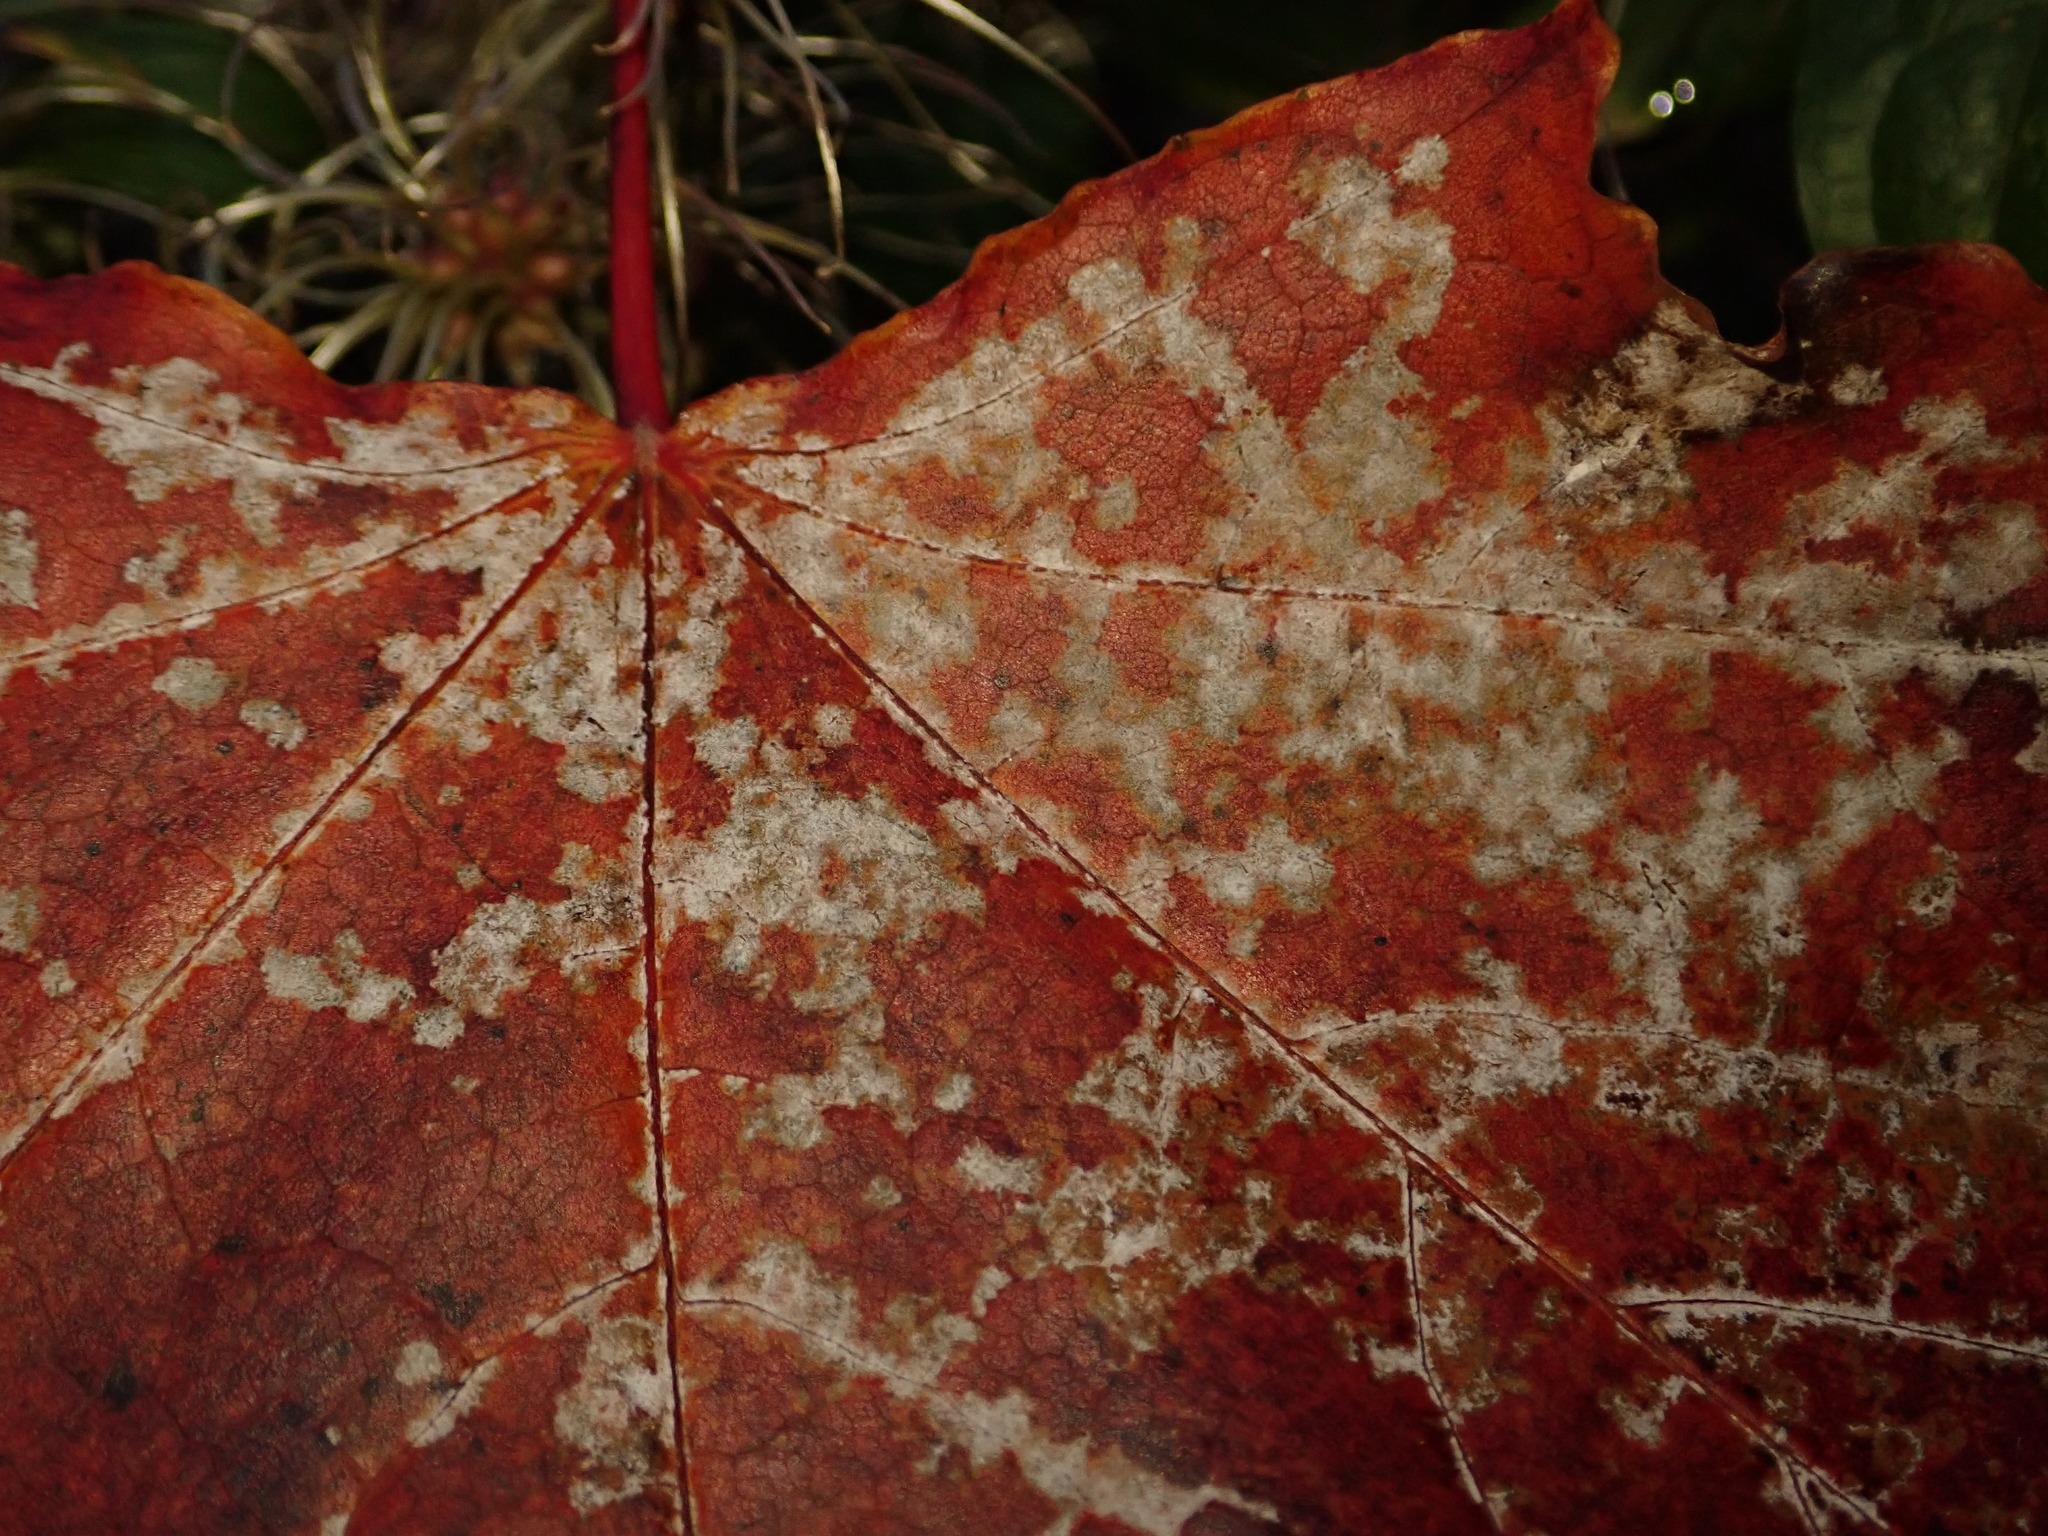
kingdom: Fungi
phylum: Ascomycota
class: Leotiomycetes
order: Helotiales
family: Erysiphaceae
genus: Sawadaea
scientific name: Sawadaea tulasnei
